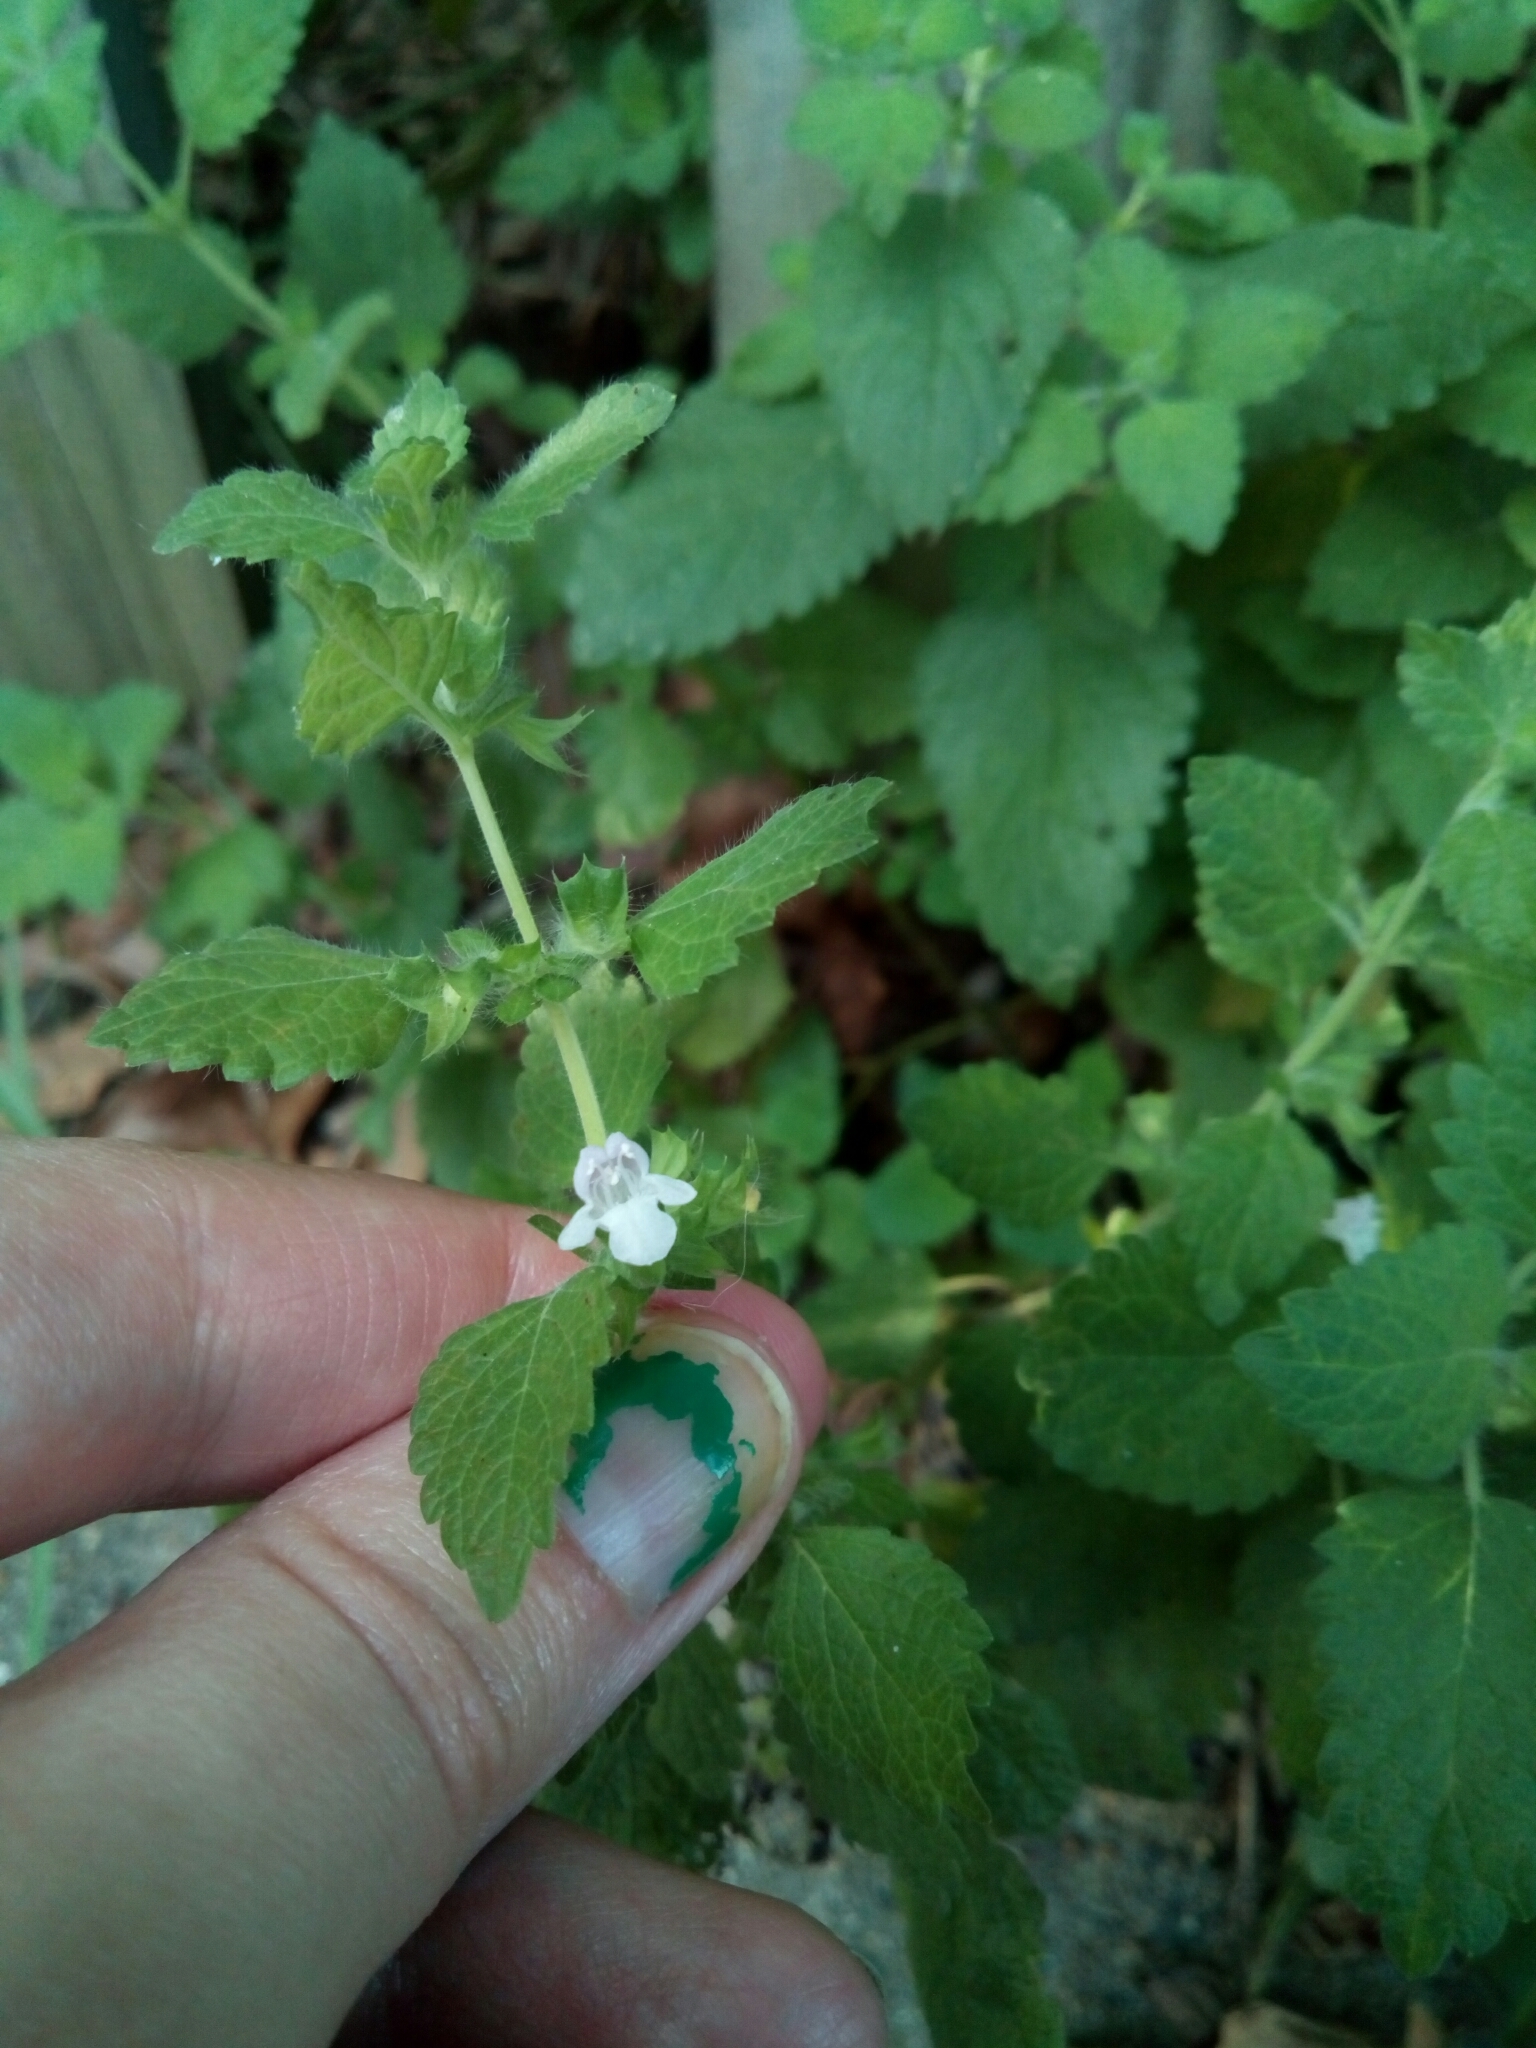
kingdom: Plantae
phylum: Tracheophyta
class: Magnoliopsida
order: Lamiales
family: Lamiaceae
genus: Melissa
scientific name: Melissa officinalis
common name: Balm
